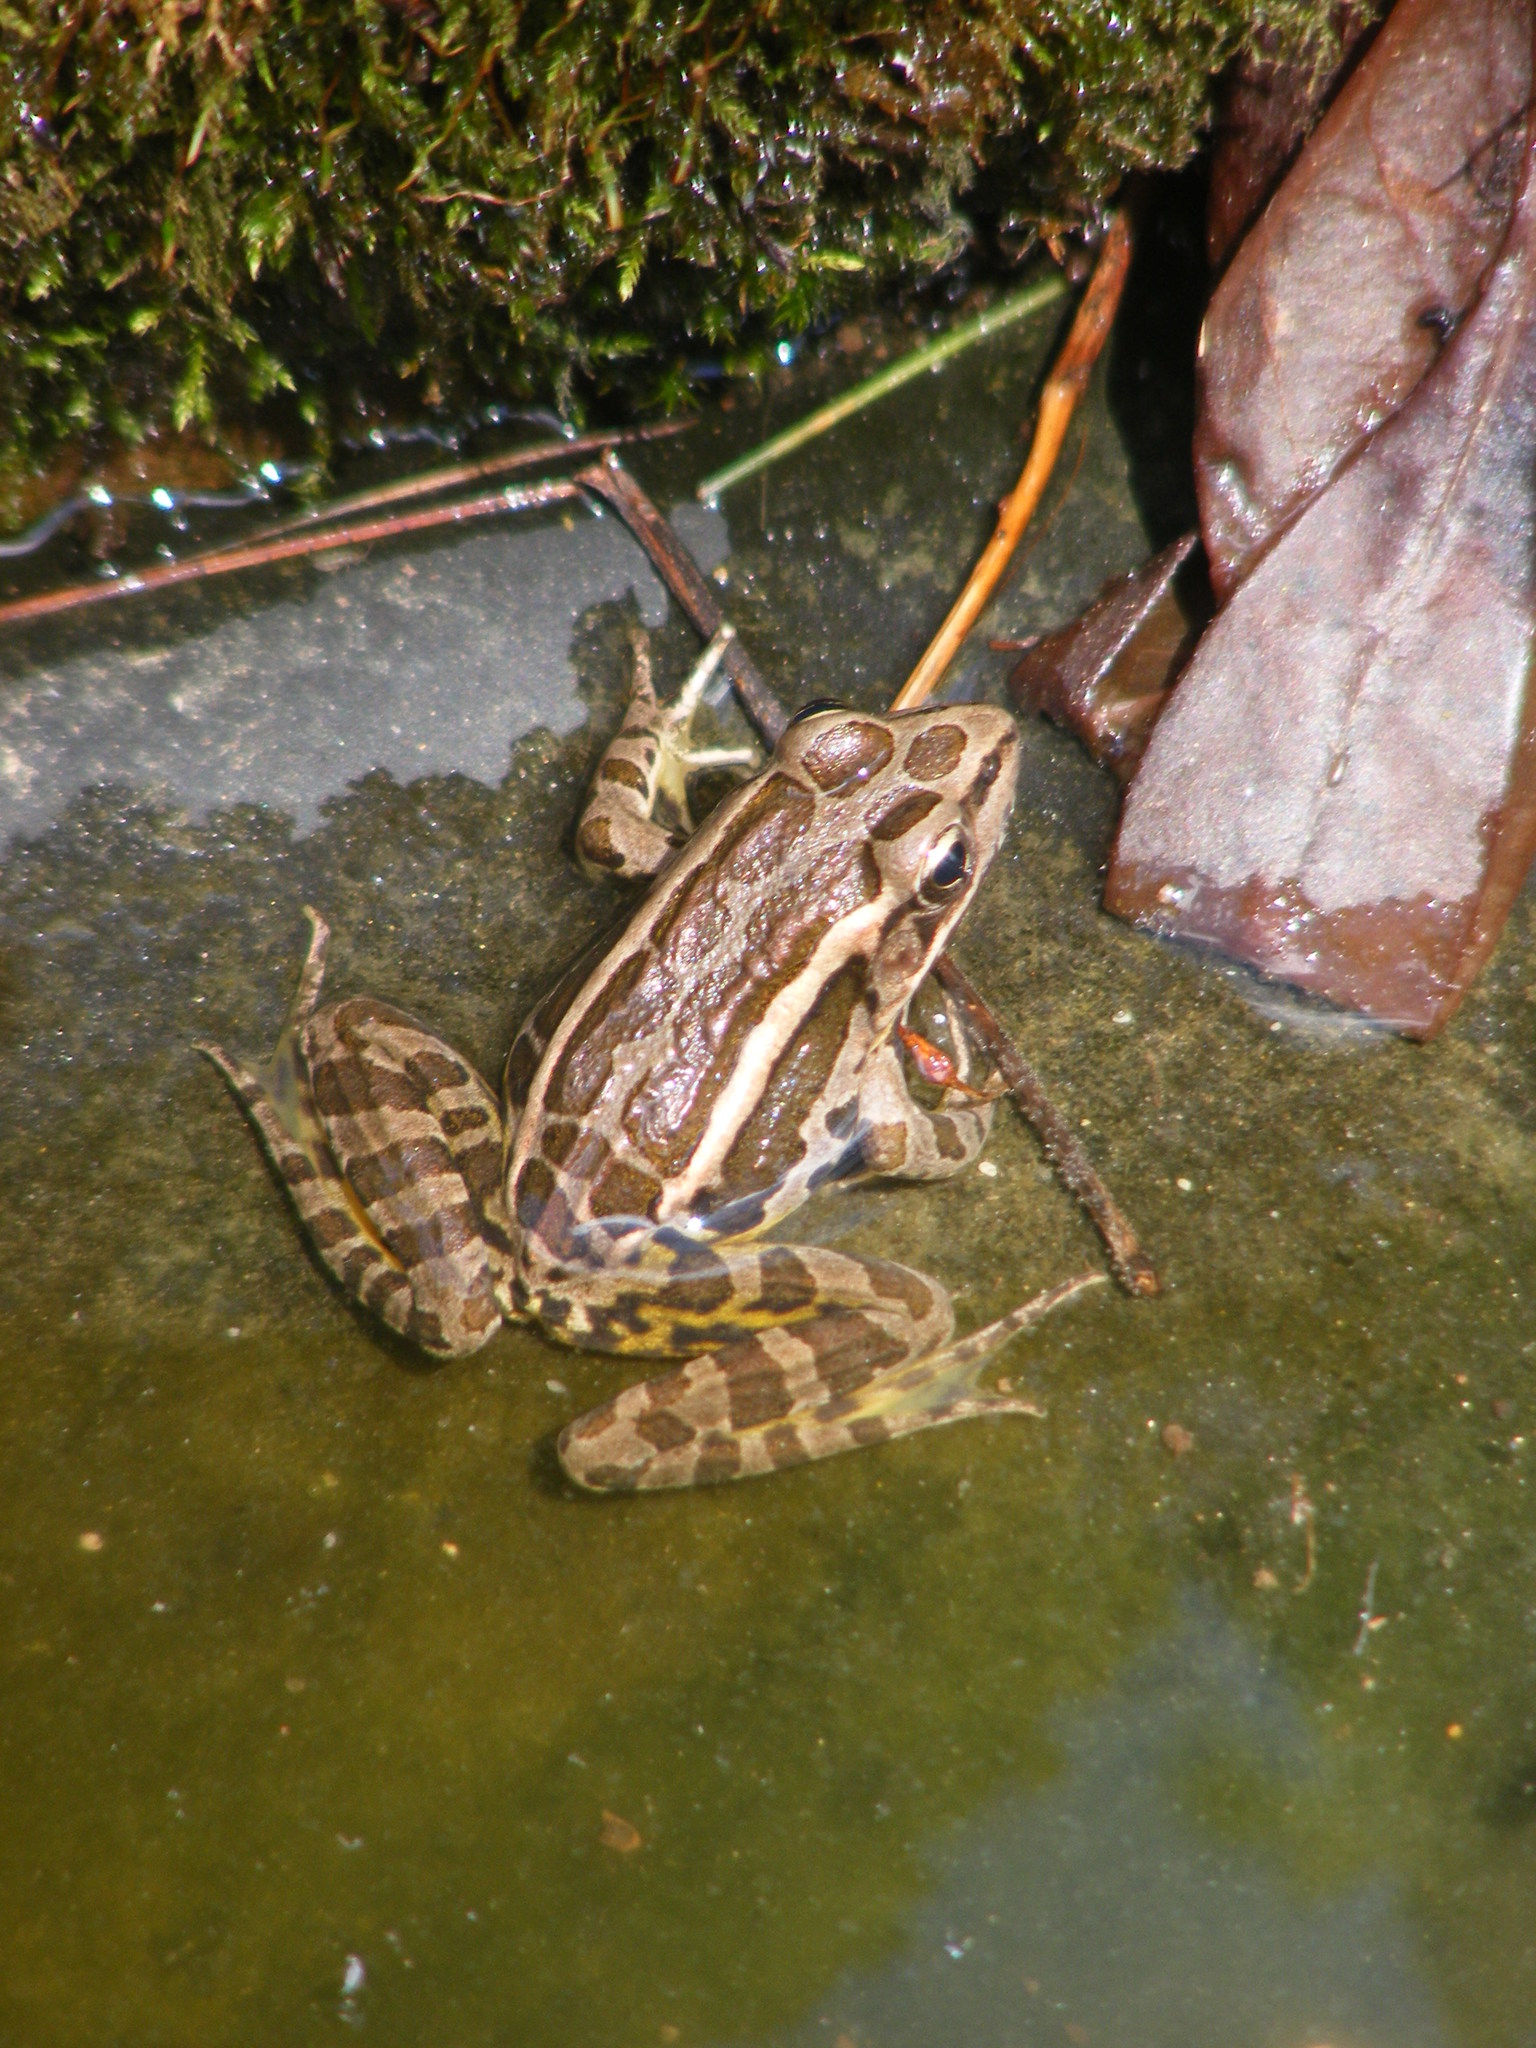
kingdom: Animalia
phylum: Chordata
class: Amphibia
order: Anura
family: Ranidae
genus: Lithobates
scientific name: Lithobates palustris
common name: Pickerel frog
